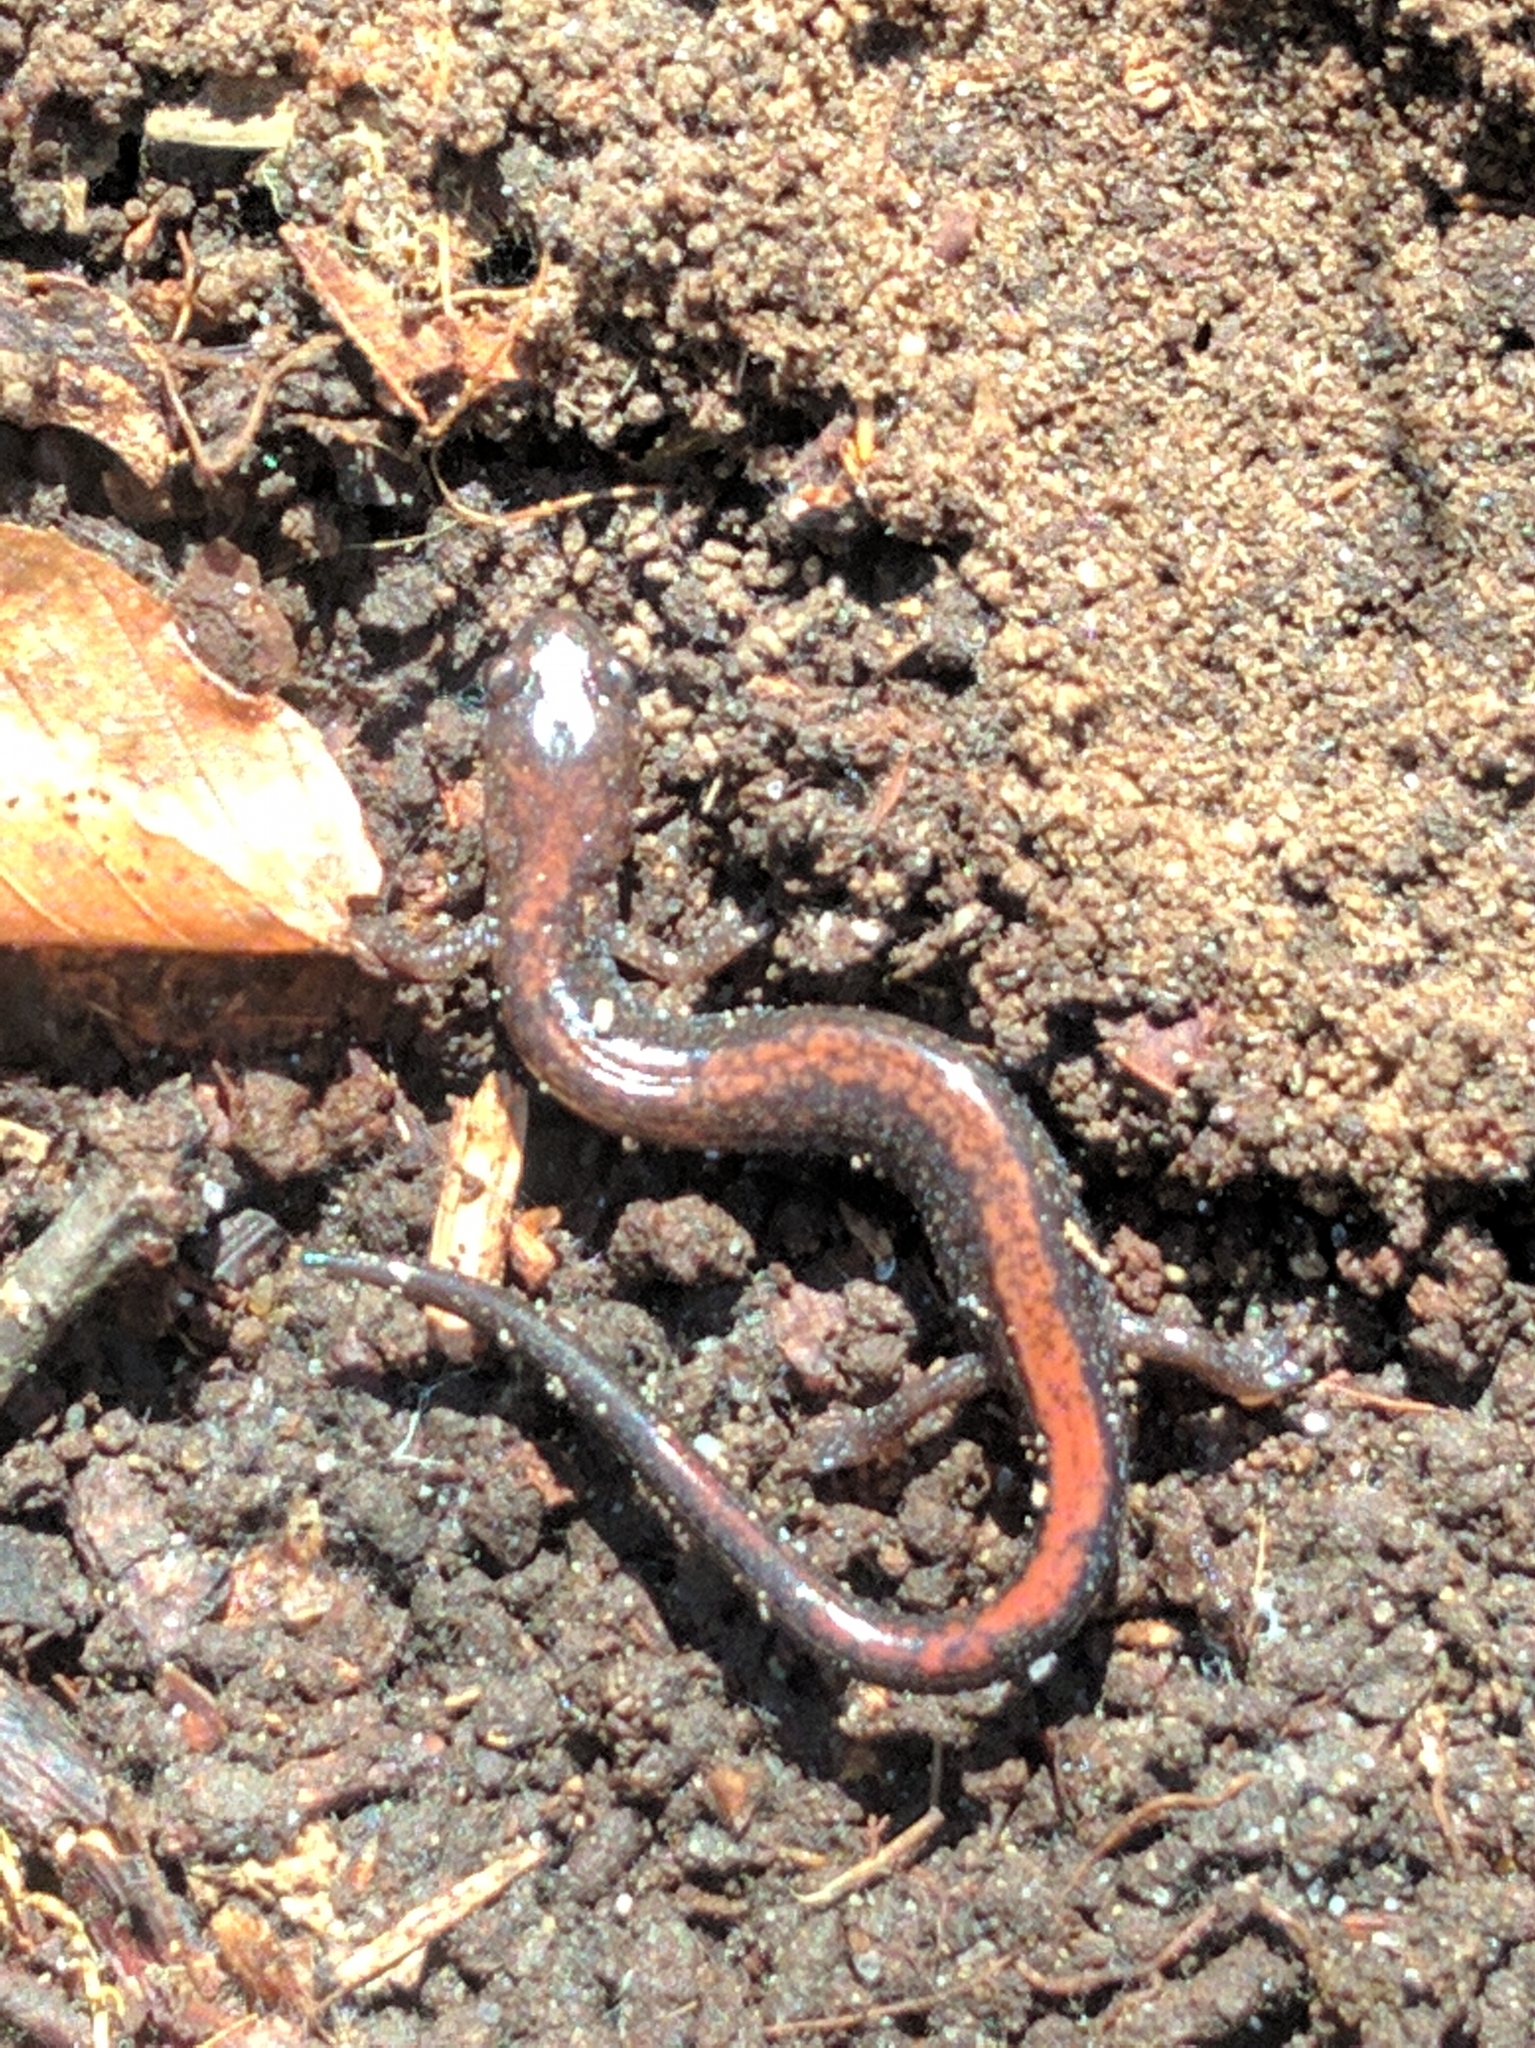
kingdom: Animalia
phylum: Chordata
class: Amphibia
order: Caudata
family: Plethodontidae
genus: Plethodon
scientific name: Plethodon cinereus
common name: Redback salamander
